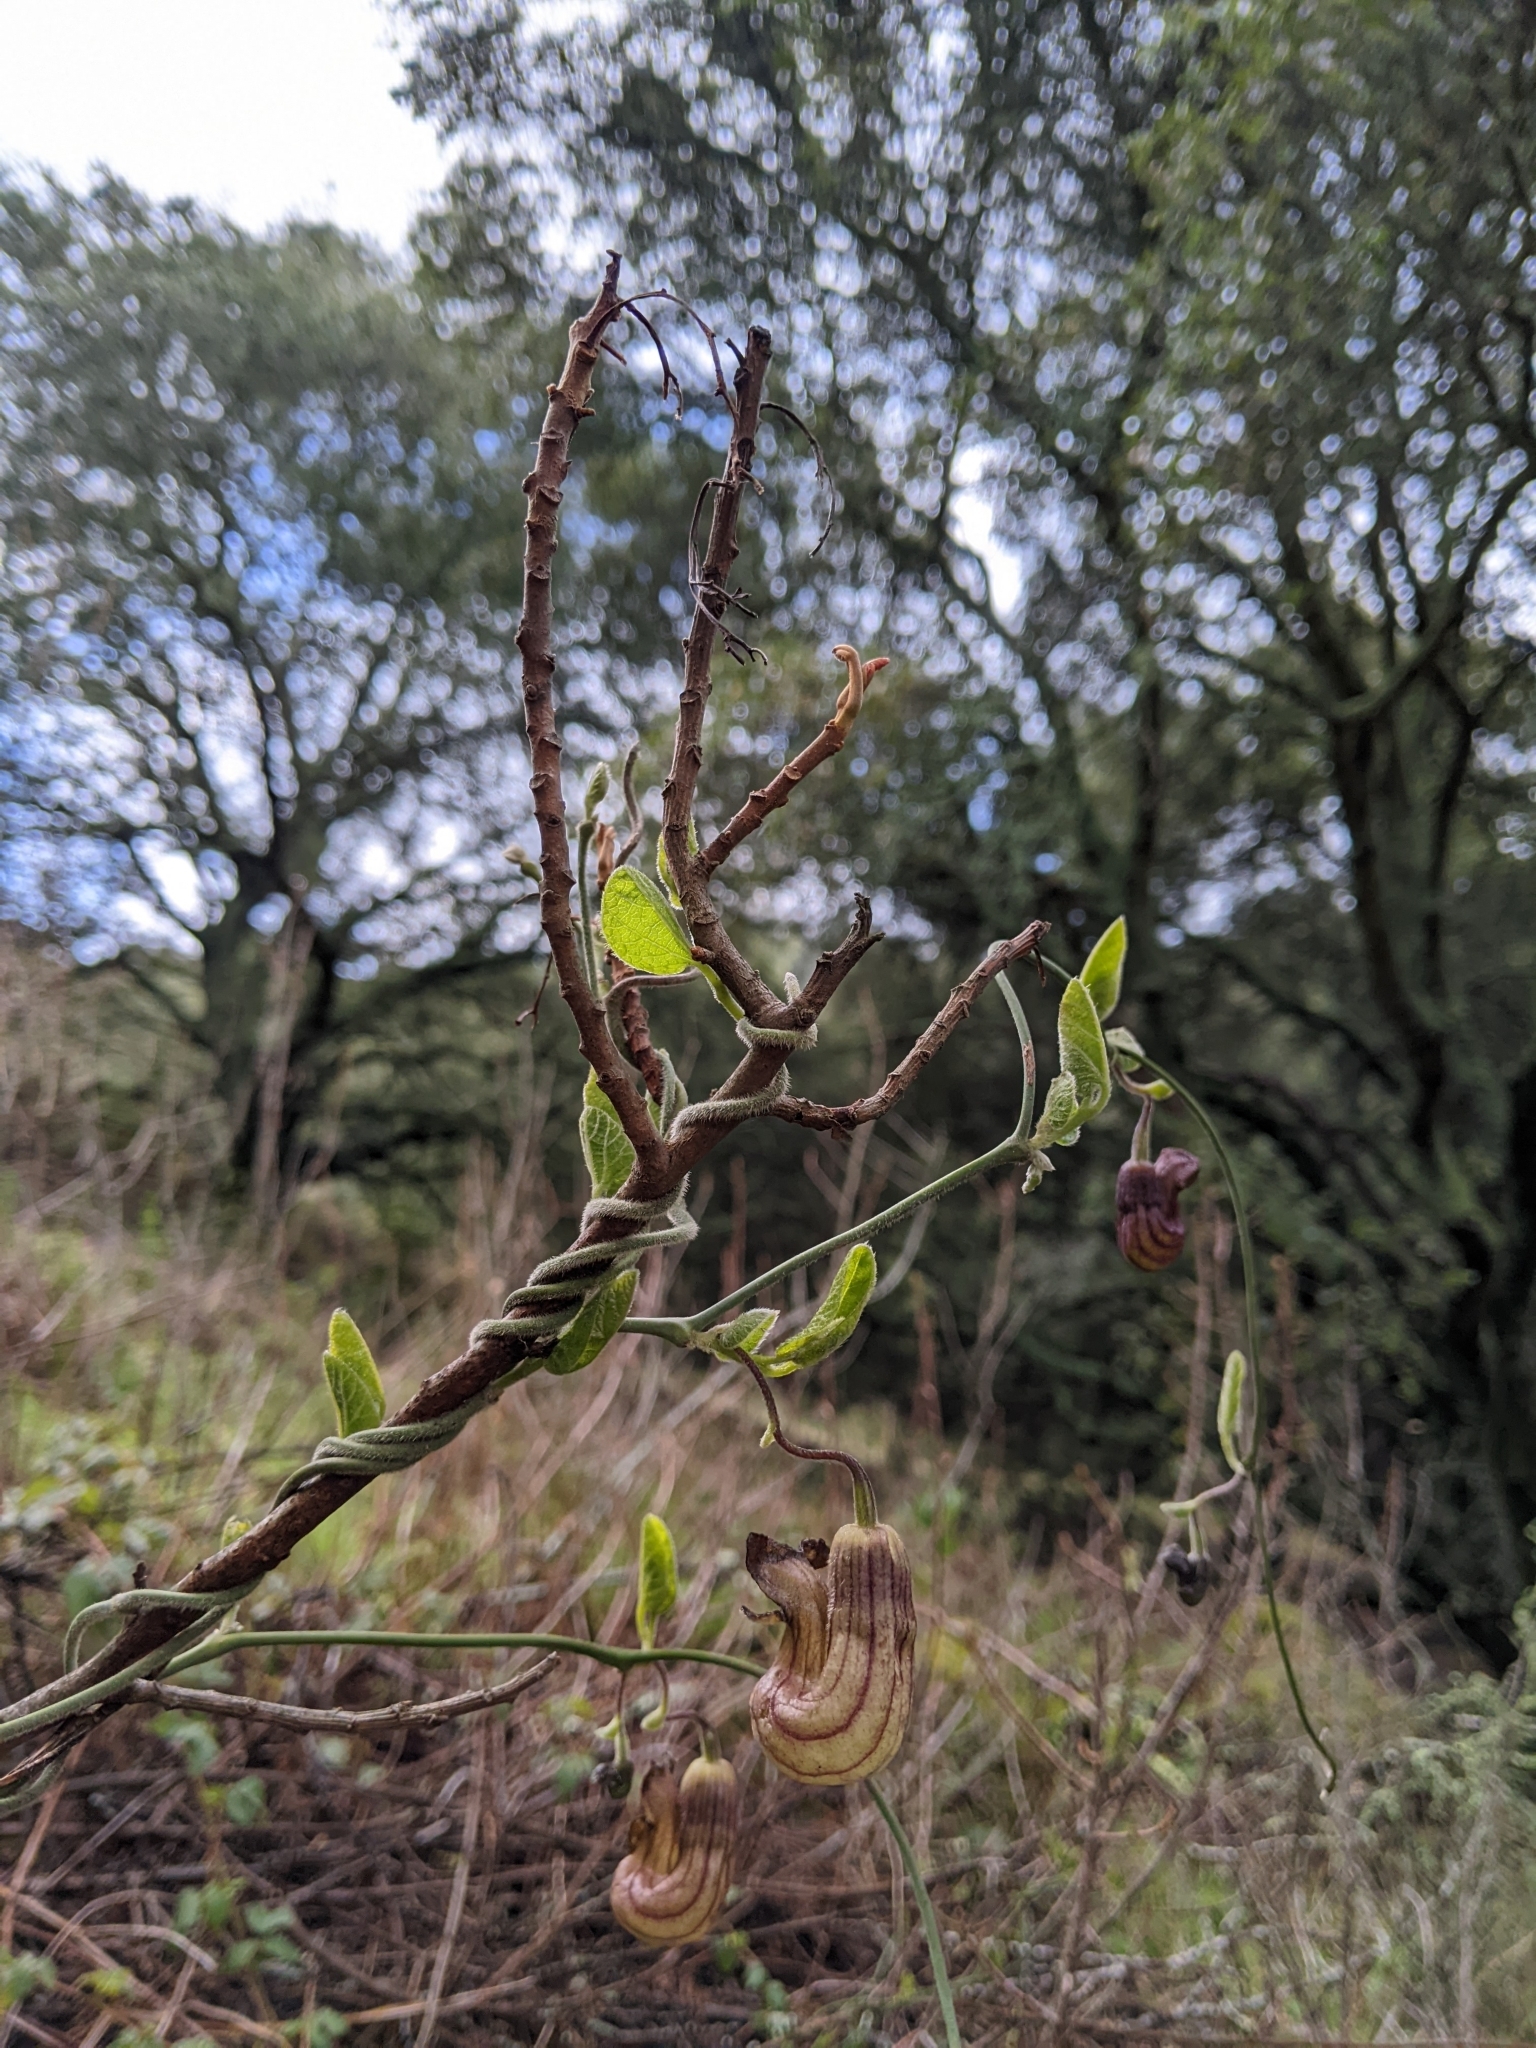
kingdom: Plantae
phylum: Tracheophyta
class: Magnoliopsida
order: Piperales
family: Aristolochiaceae
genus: Isotrema
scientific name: Isotrema californicum
